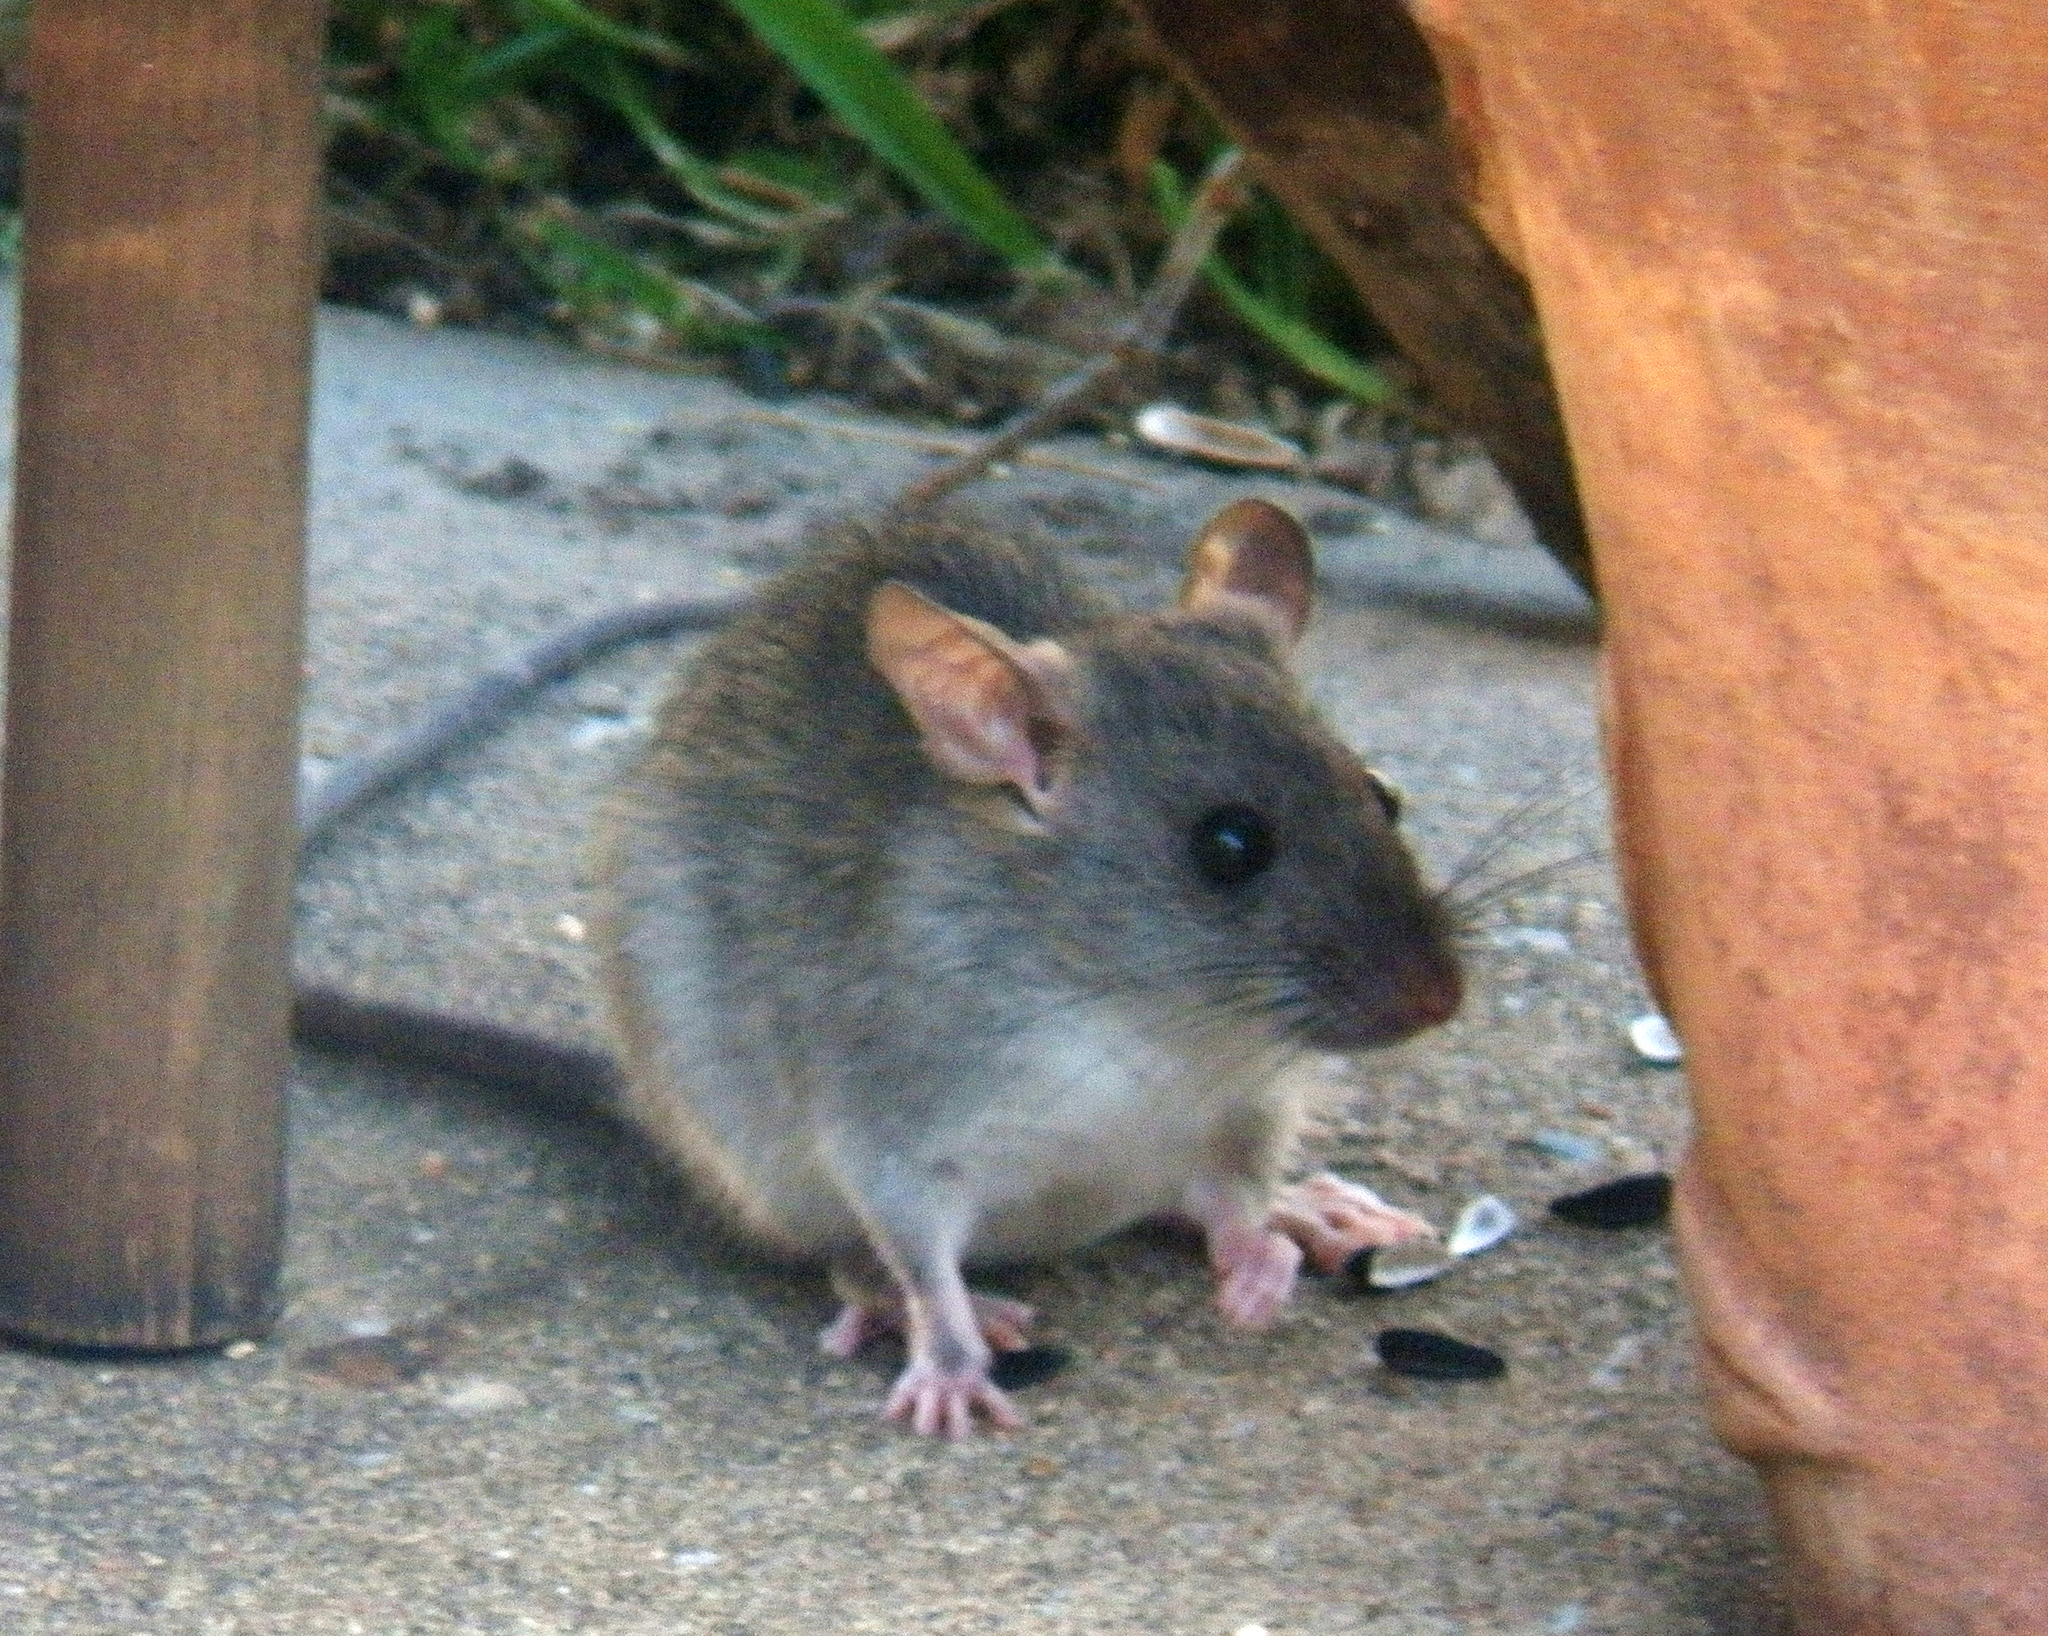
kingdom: Animalia
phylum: Chordata
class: Mammalia
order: Rodentia
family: Muridae
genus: Rattus
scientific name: Rattus rattus
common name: Black rat
